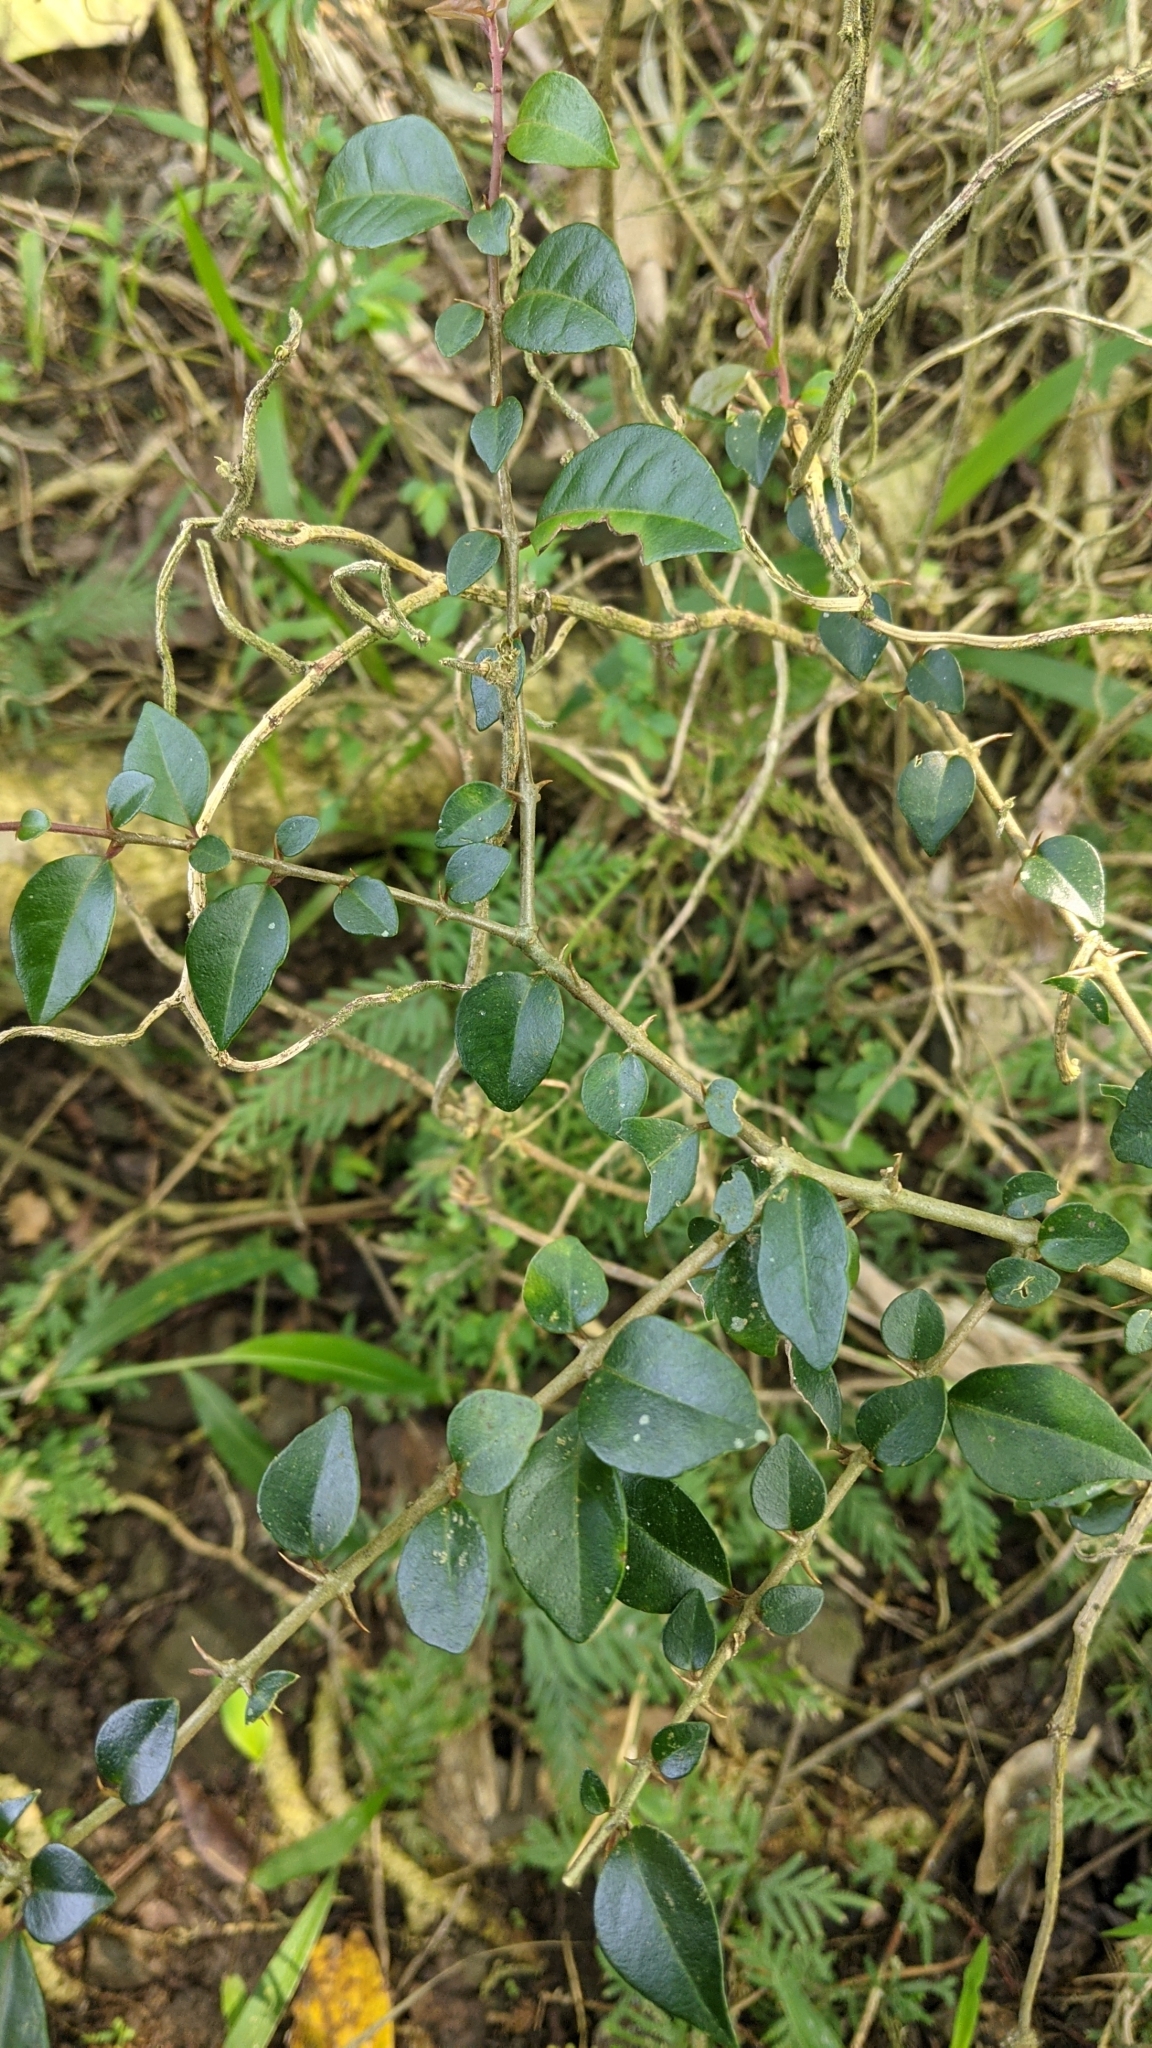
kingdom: Plantae
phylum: Tracheophyta
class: Magnoliopsida
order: Caryophyllales
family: Nyctaginaceae
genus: Pisonia
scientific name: Pisonia aculeata
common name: Cockspur vine
